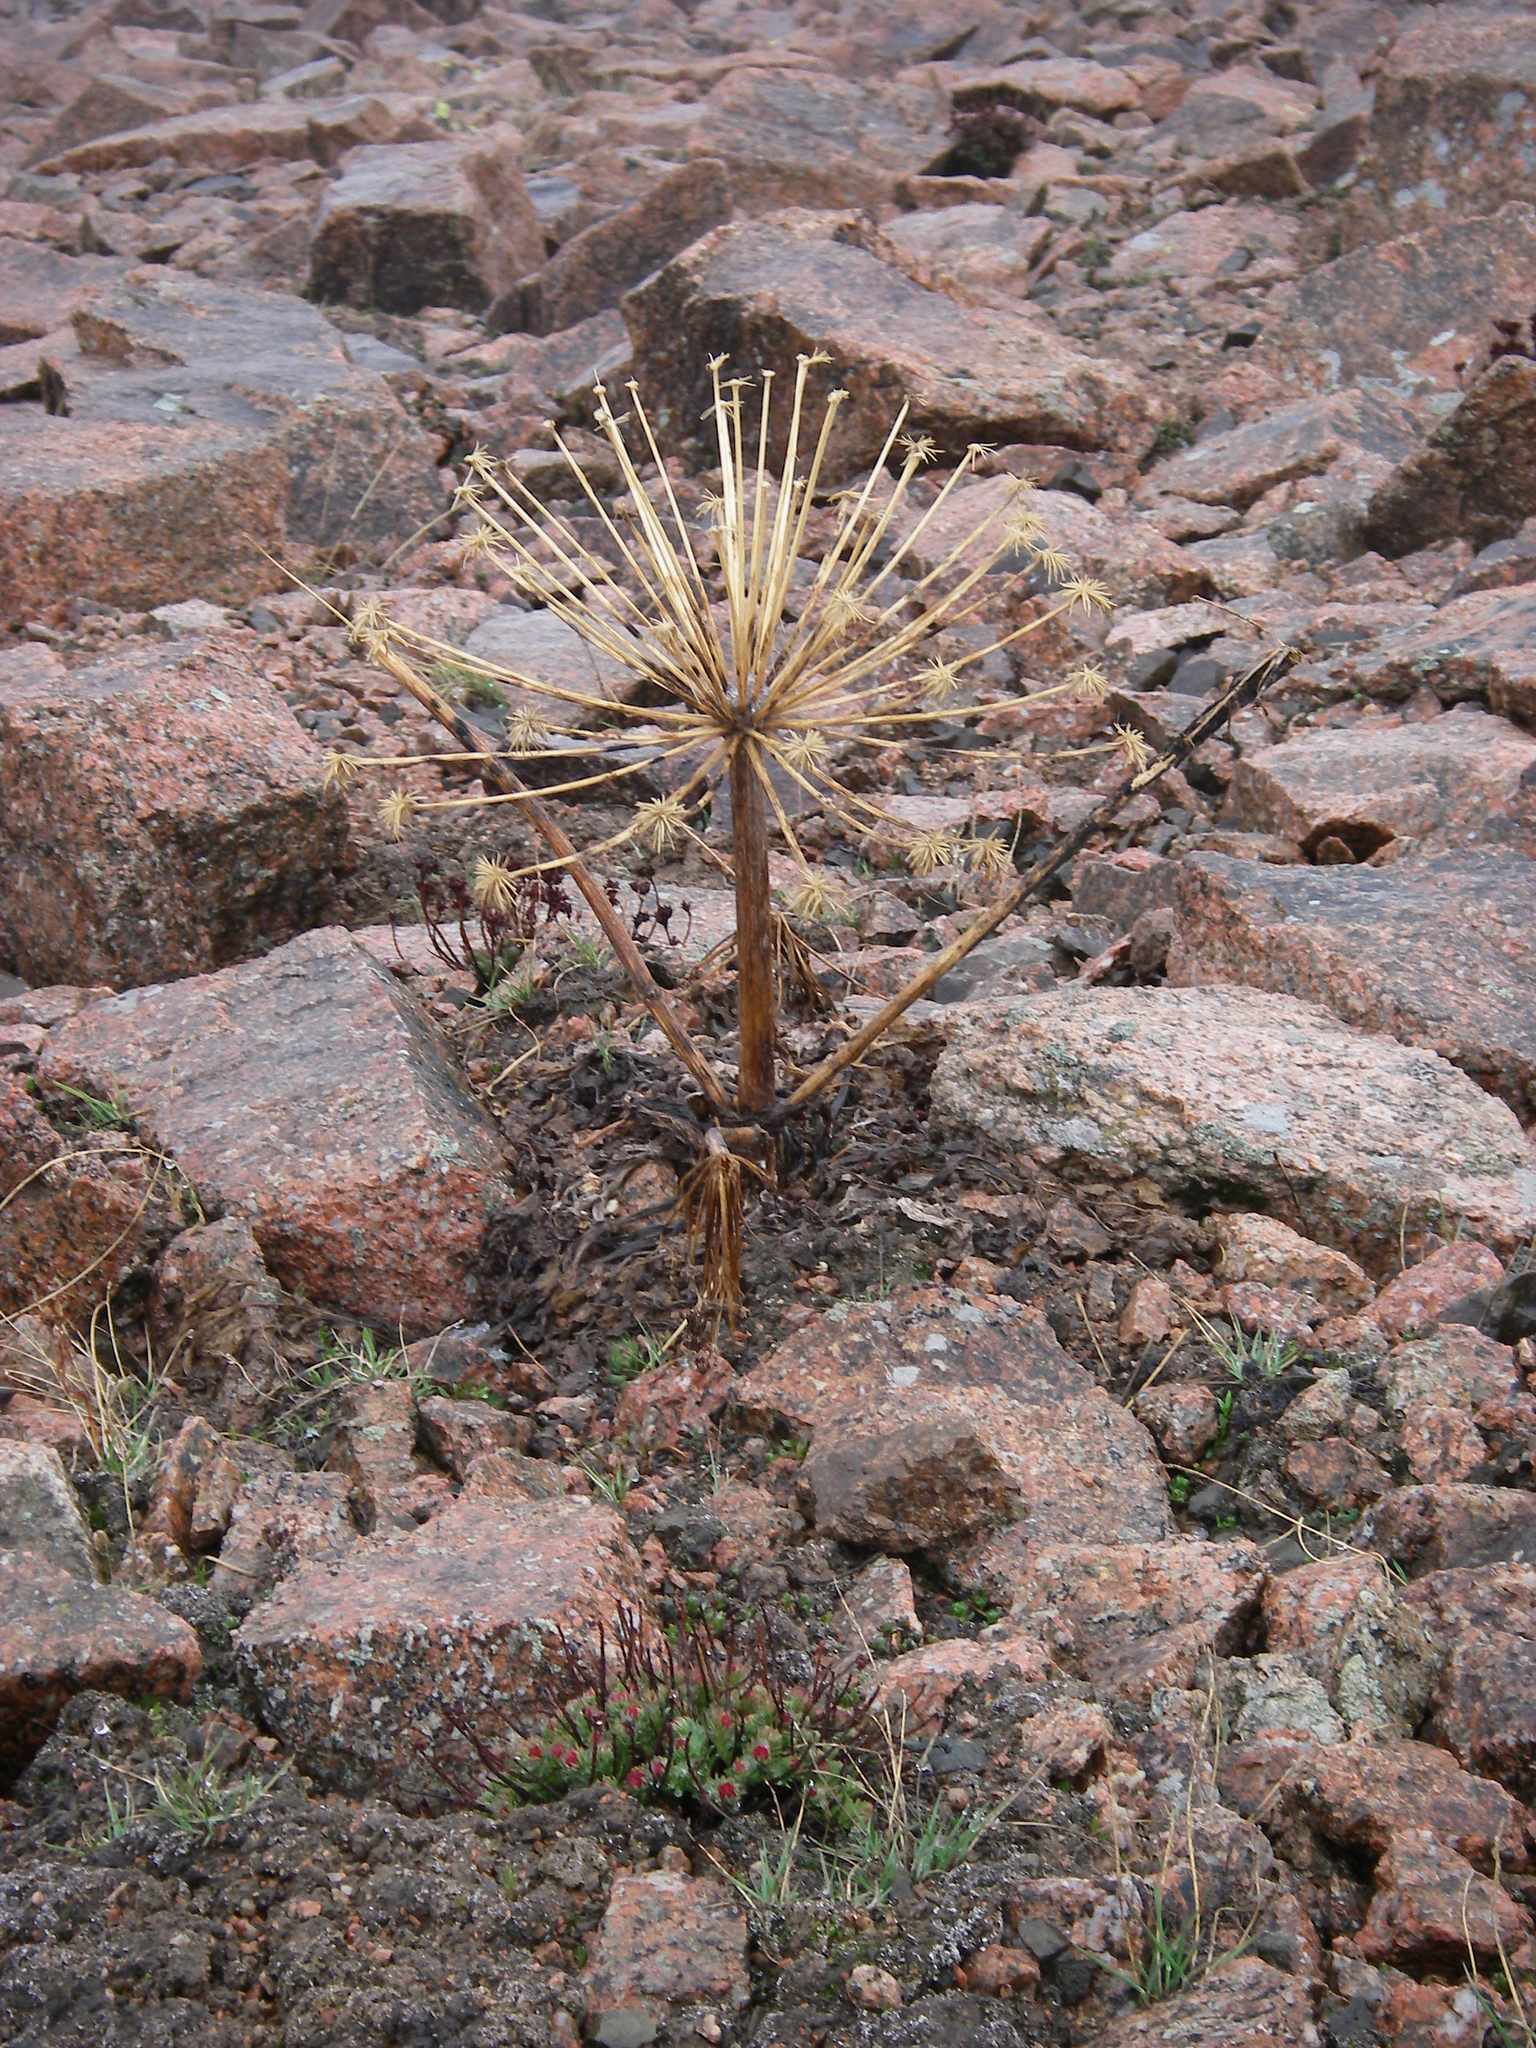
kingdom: Plantae
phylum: Tracheophyta
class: Magnoliopsida
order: Apiales
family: Apiaceae
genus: Angelica
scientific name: Angelica brevicaulis
